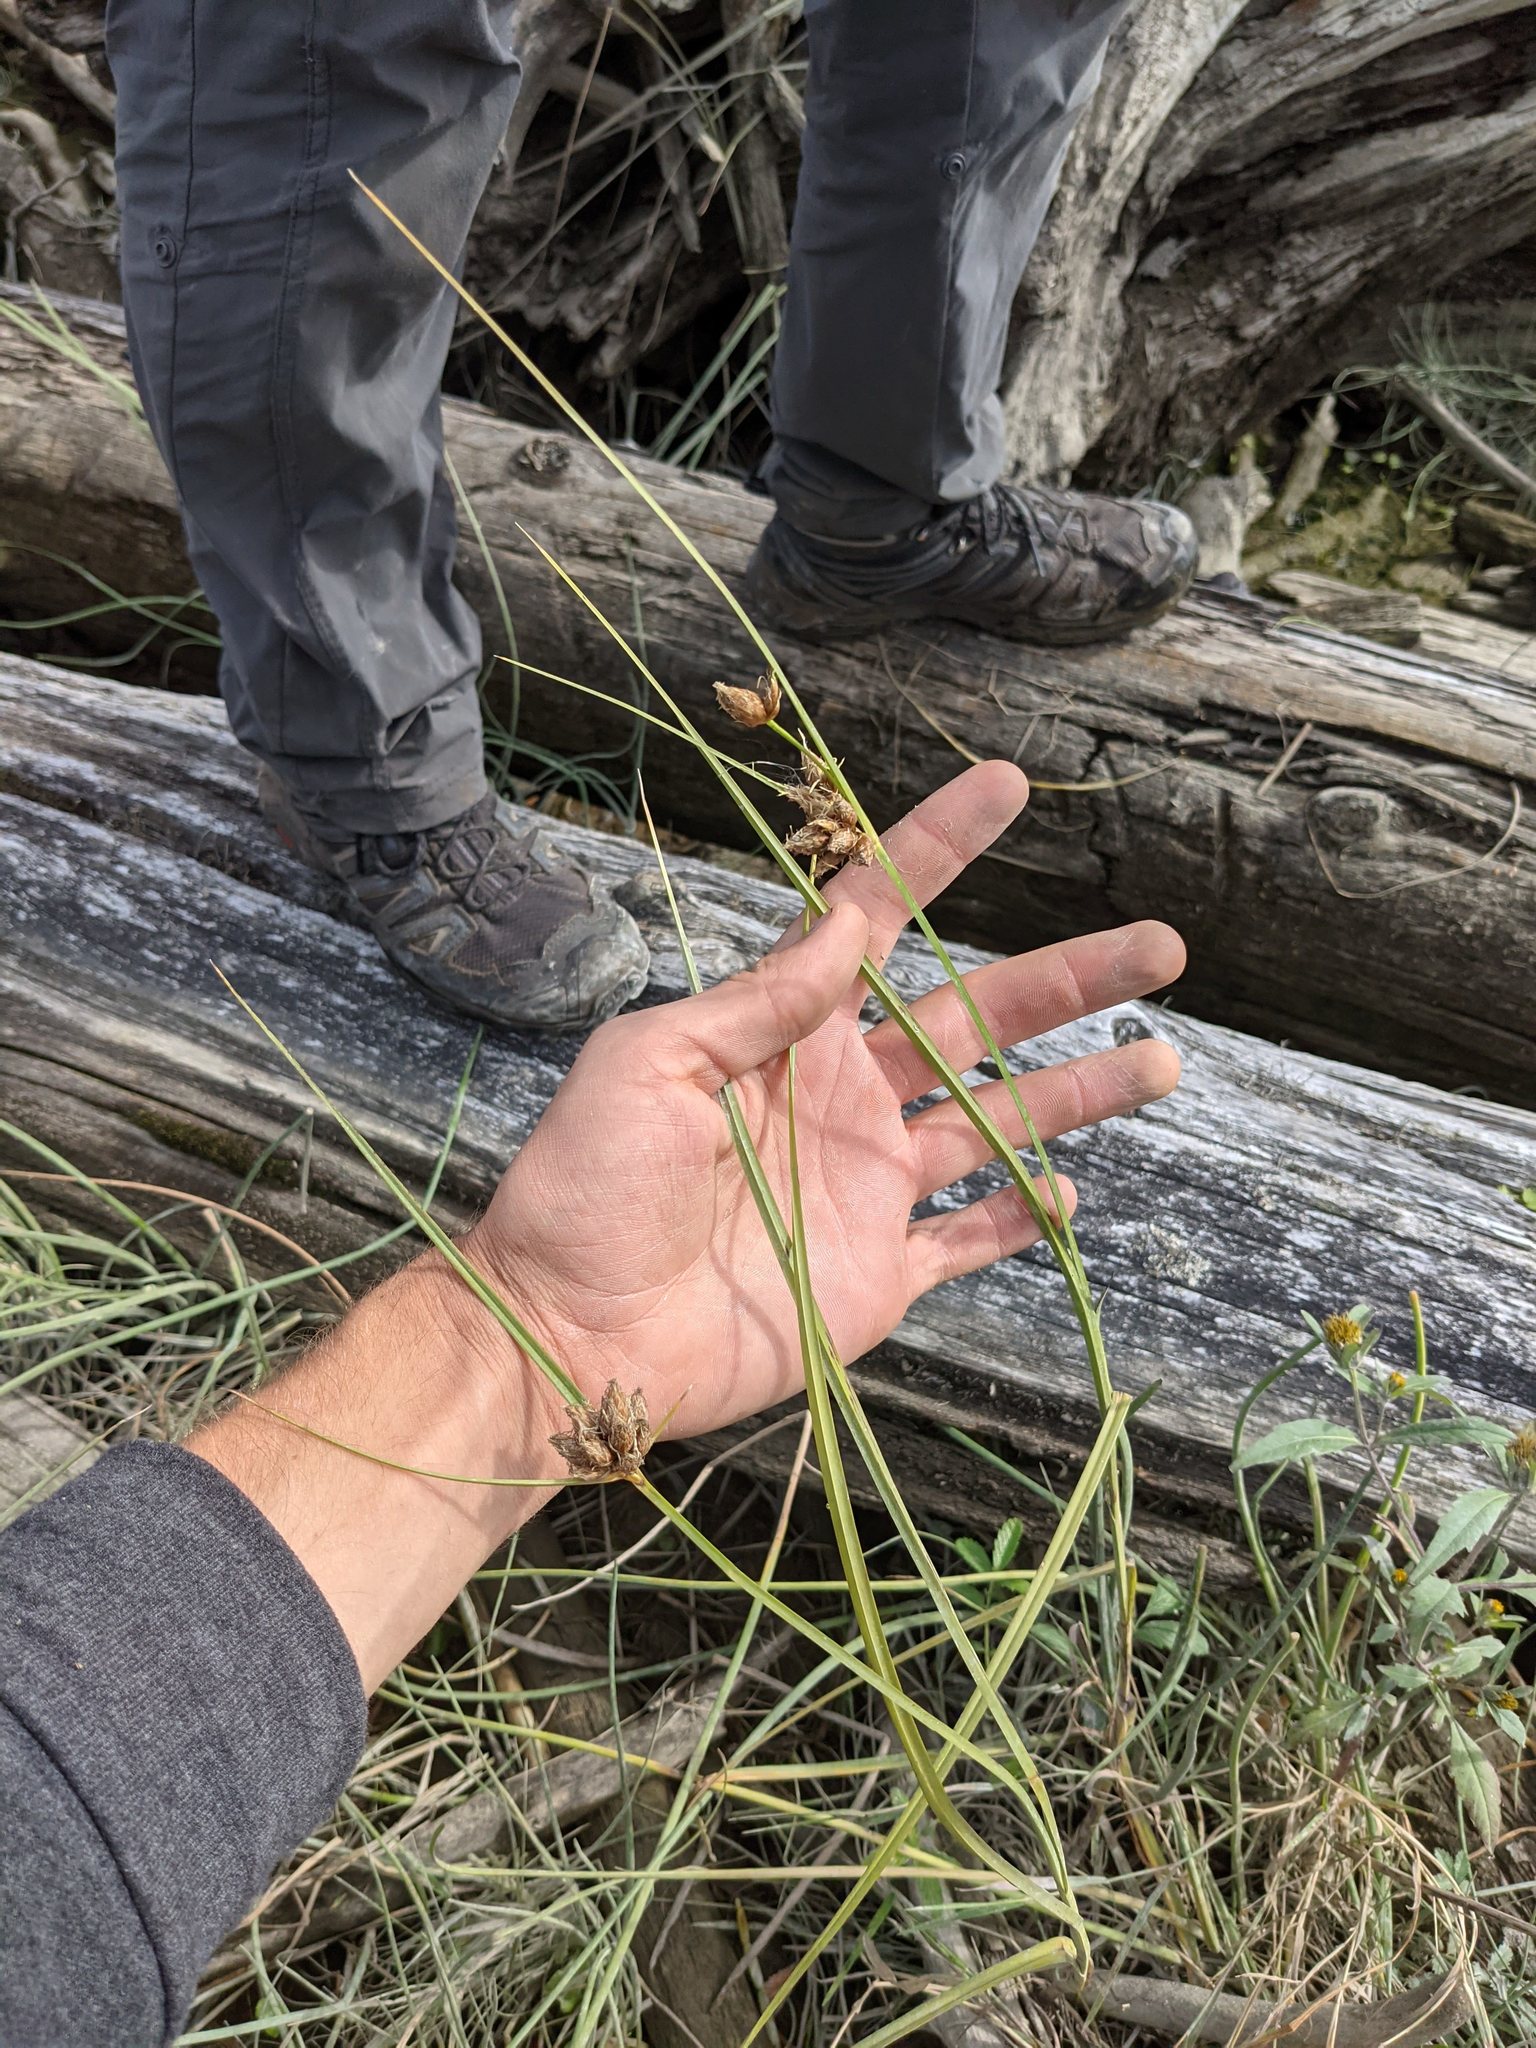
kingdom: Plantae
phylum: Tracheophyta
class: Liliopsida
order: Poales
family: Cyperaceae
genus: Bolboschoenus
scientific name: Bolboschoenus maritimus
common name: Sea club-rush
